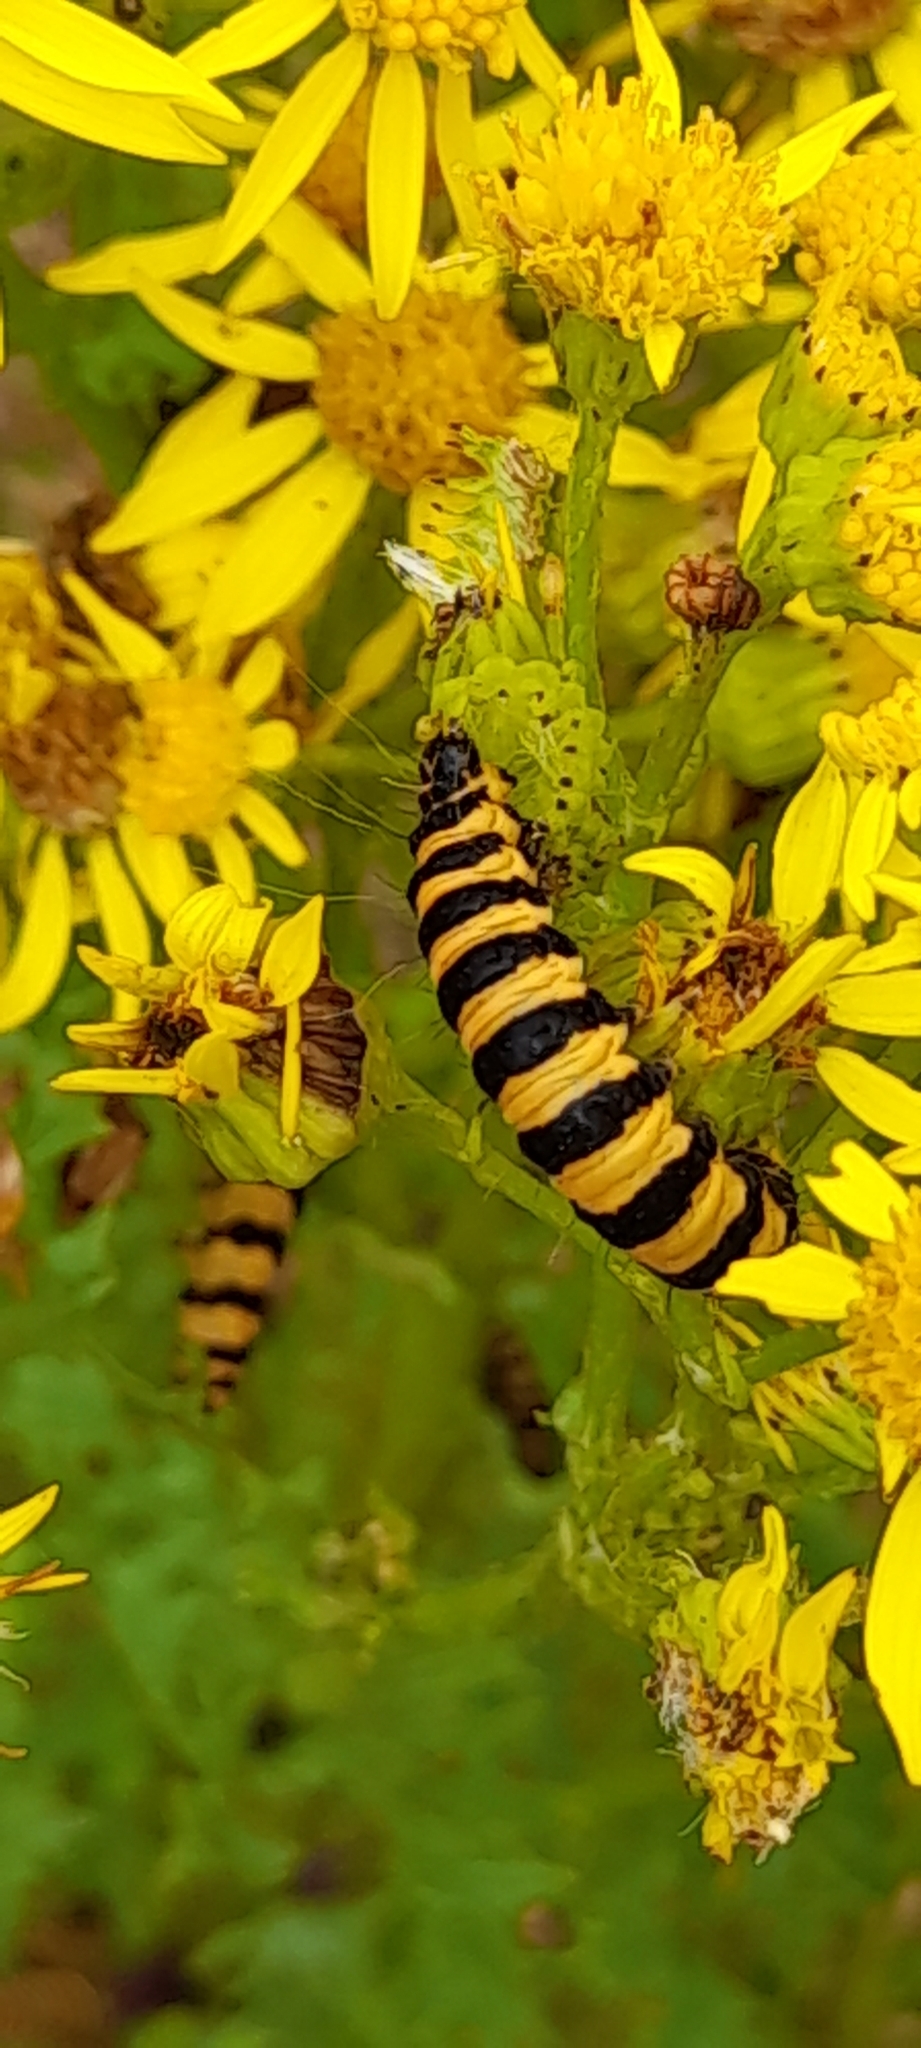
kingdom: Animalia
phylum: Arthropoda
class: Insecta
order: Lepidoptera
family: Erebidae
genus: Tyria
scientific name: Tyria jacobaeae
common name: Cinnabar
